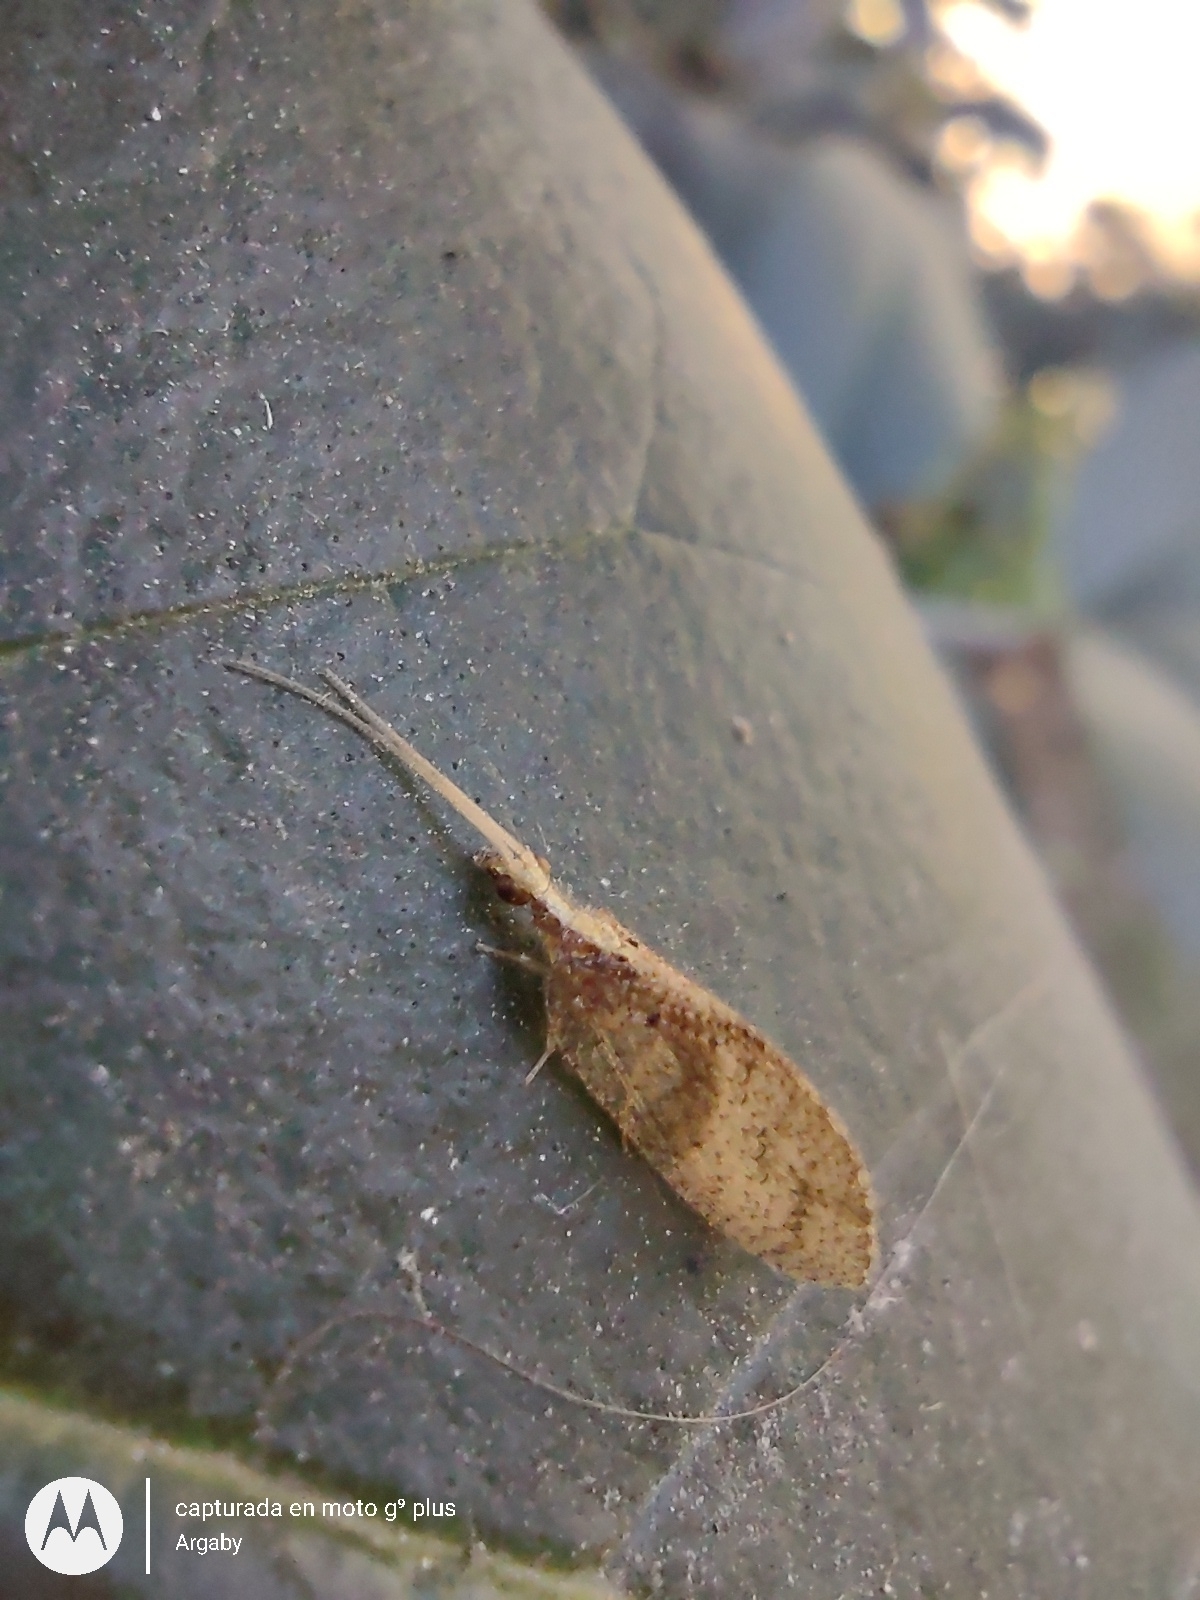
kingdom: Animalia
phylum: Arthropoda
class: Insecta
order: Neuroptera
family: Hemerobiidae
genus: Hemerobius
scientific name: Hemerobius bolivari
